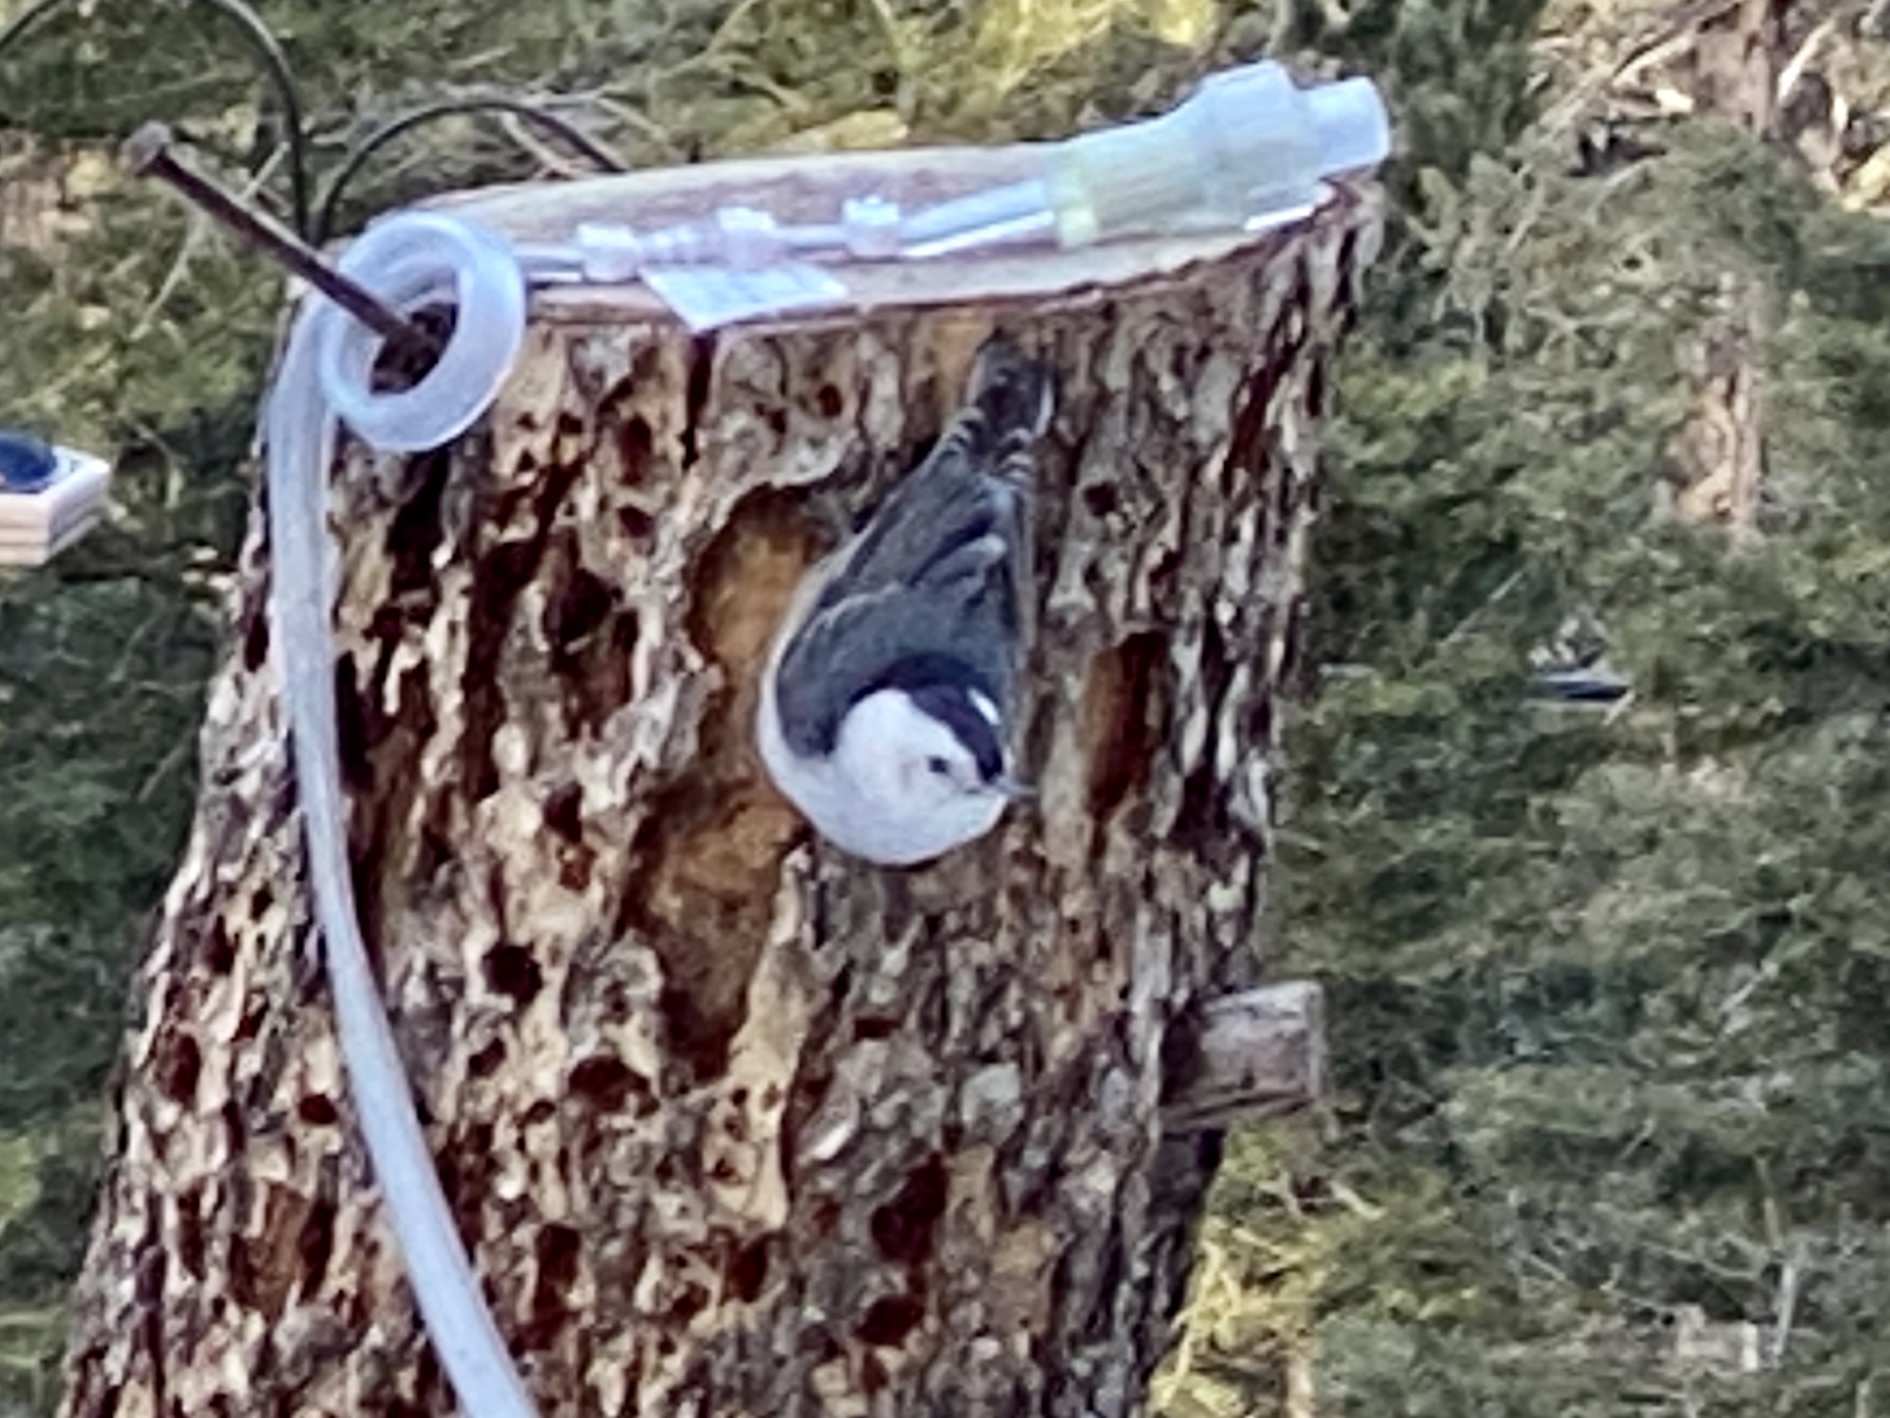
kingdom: Animalia
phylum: Chordata
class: Aves
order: Passeriformes
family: Sittidae
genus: Sitta
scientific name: Sitta carolinensis
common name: White-breasted nuthatch
